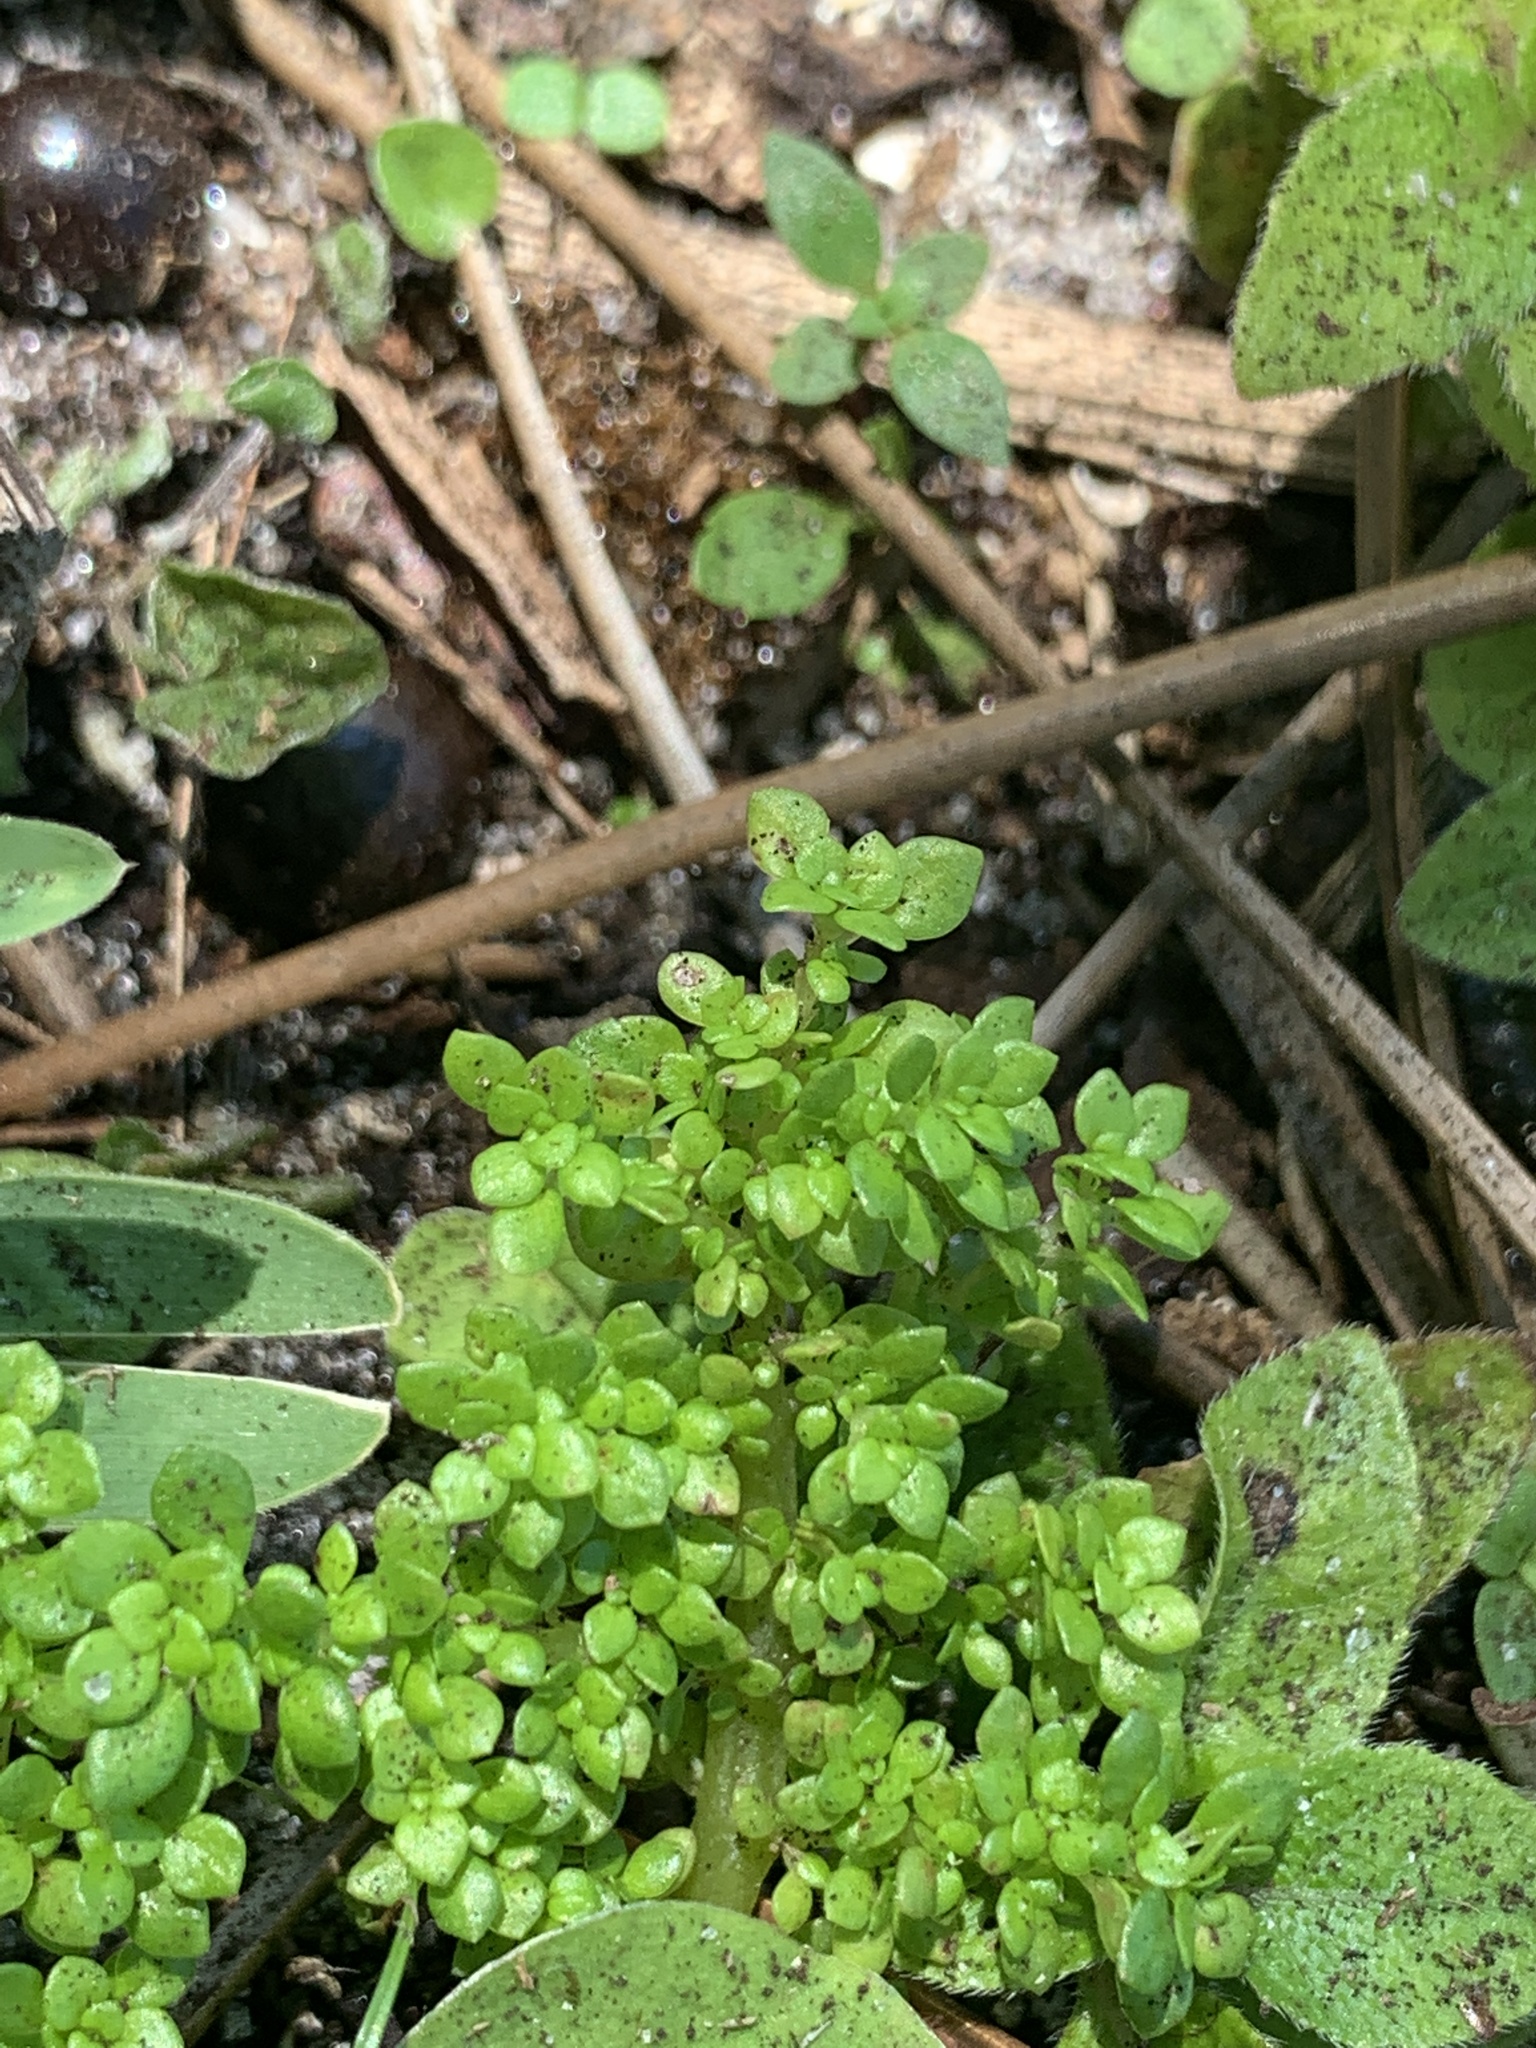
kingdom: Plantae
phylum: Tracheophyta
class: Magnoliopsida
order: Rosales
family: Urticaceae
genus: Pilea
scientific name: Pilea microphylla
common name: Artillery-plant
